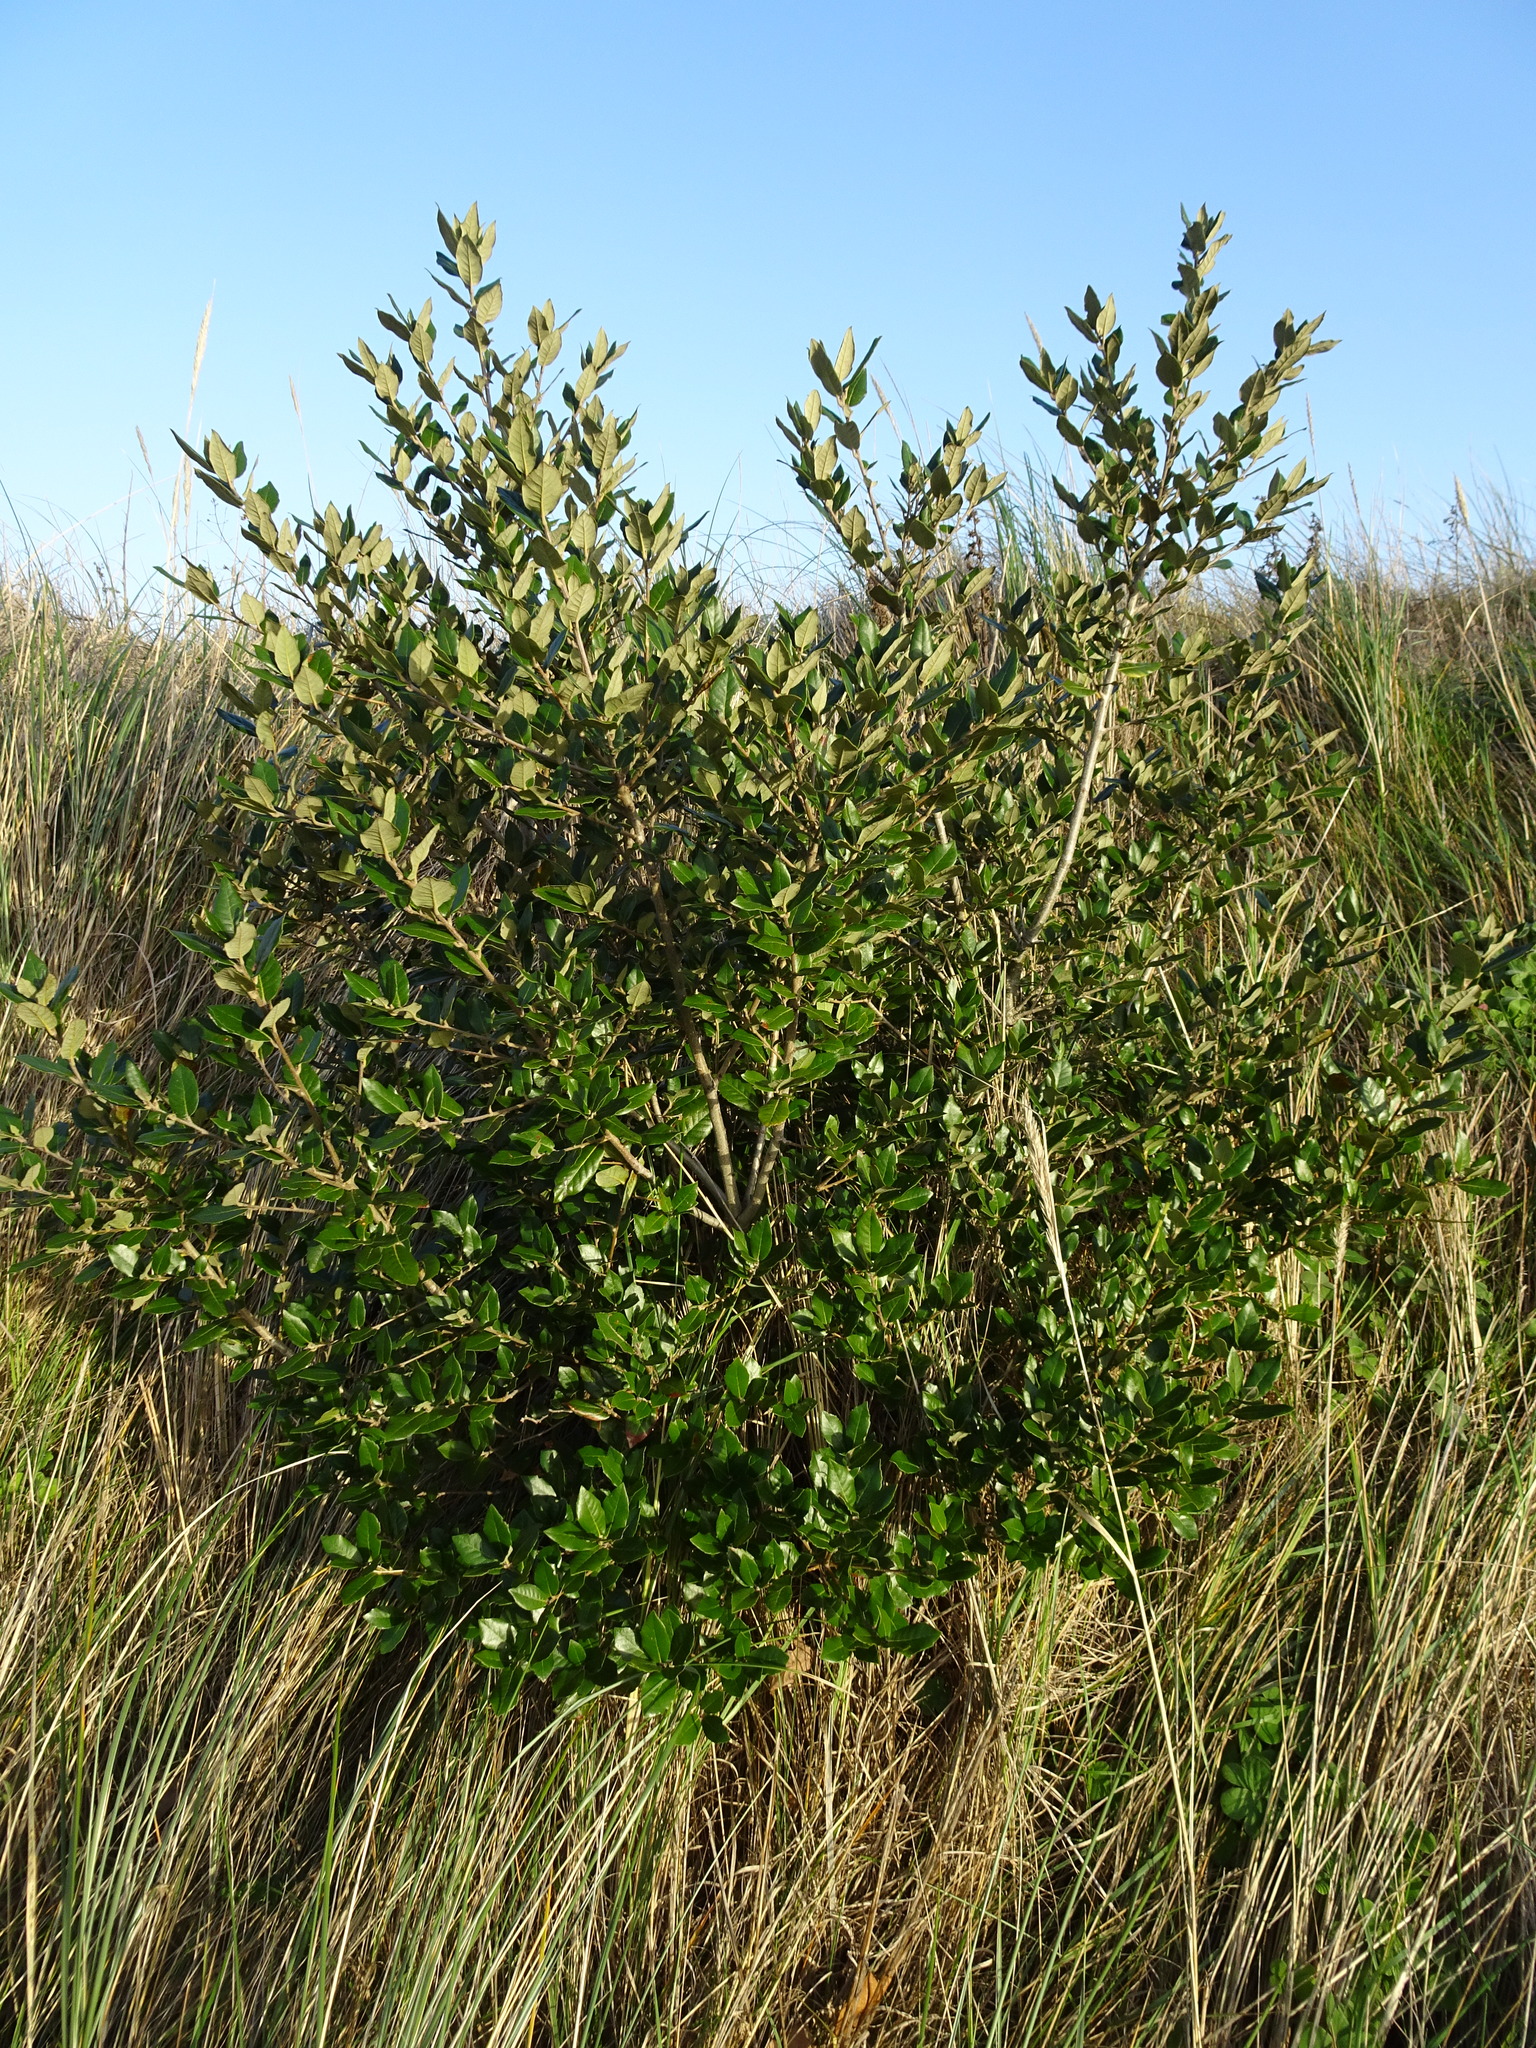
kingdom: Plantae
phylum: Tracheophyta
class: Magnoliopsida
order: Fagales
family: Fagaceae
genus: Quercus
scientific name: Quercus ilex
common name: Evergreen oak
